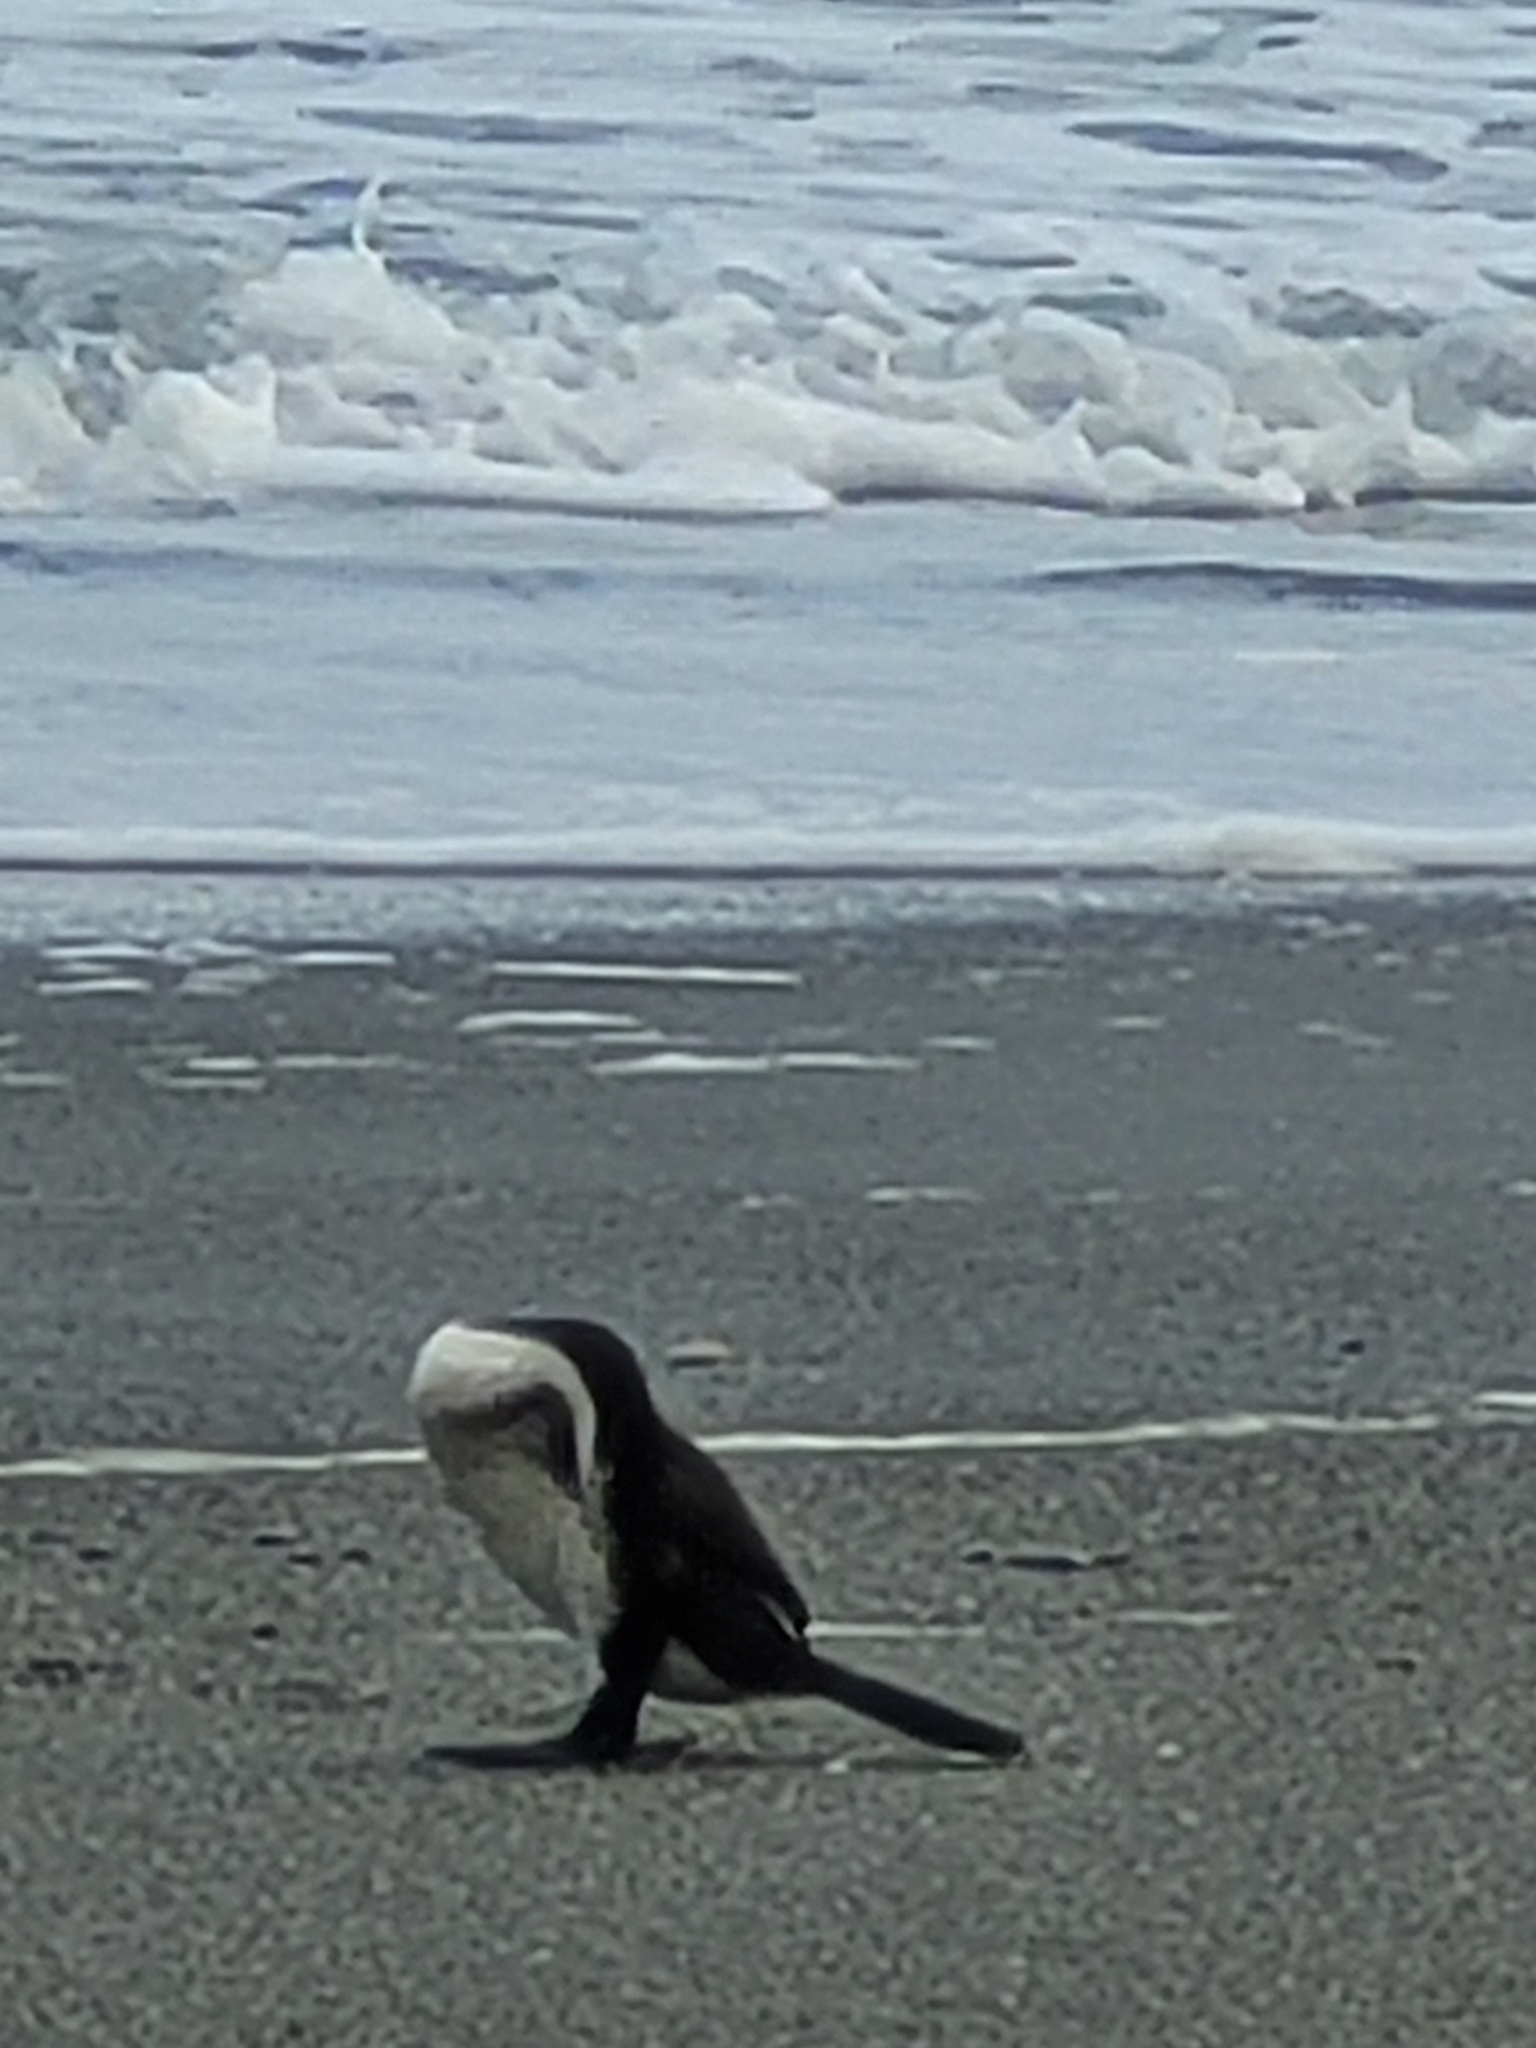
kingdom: Animalia
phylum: Chordata
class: Aves
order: Suliformes
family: Phalacrocoracidae
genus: Phalacrocorax
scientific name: Phalacrocorax varius
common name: Pied cormorant
